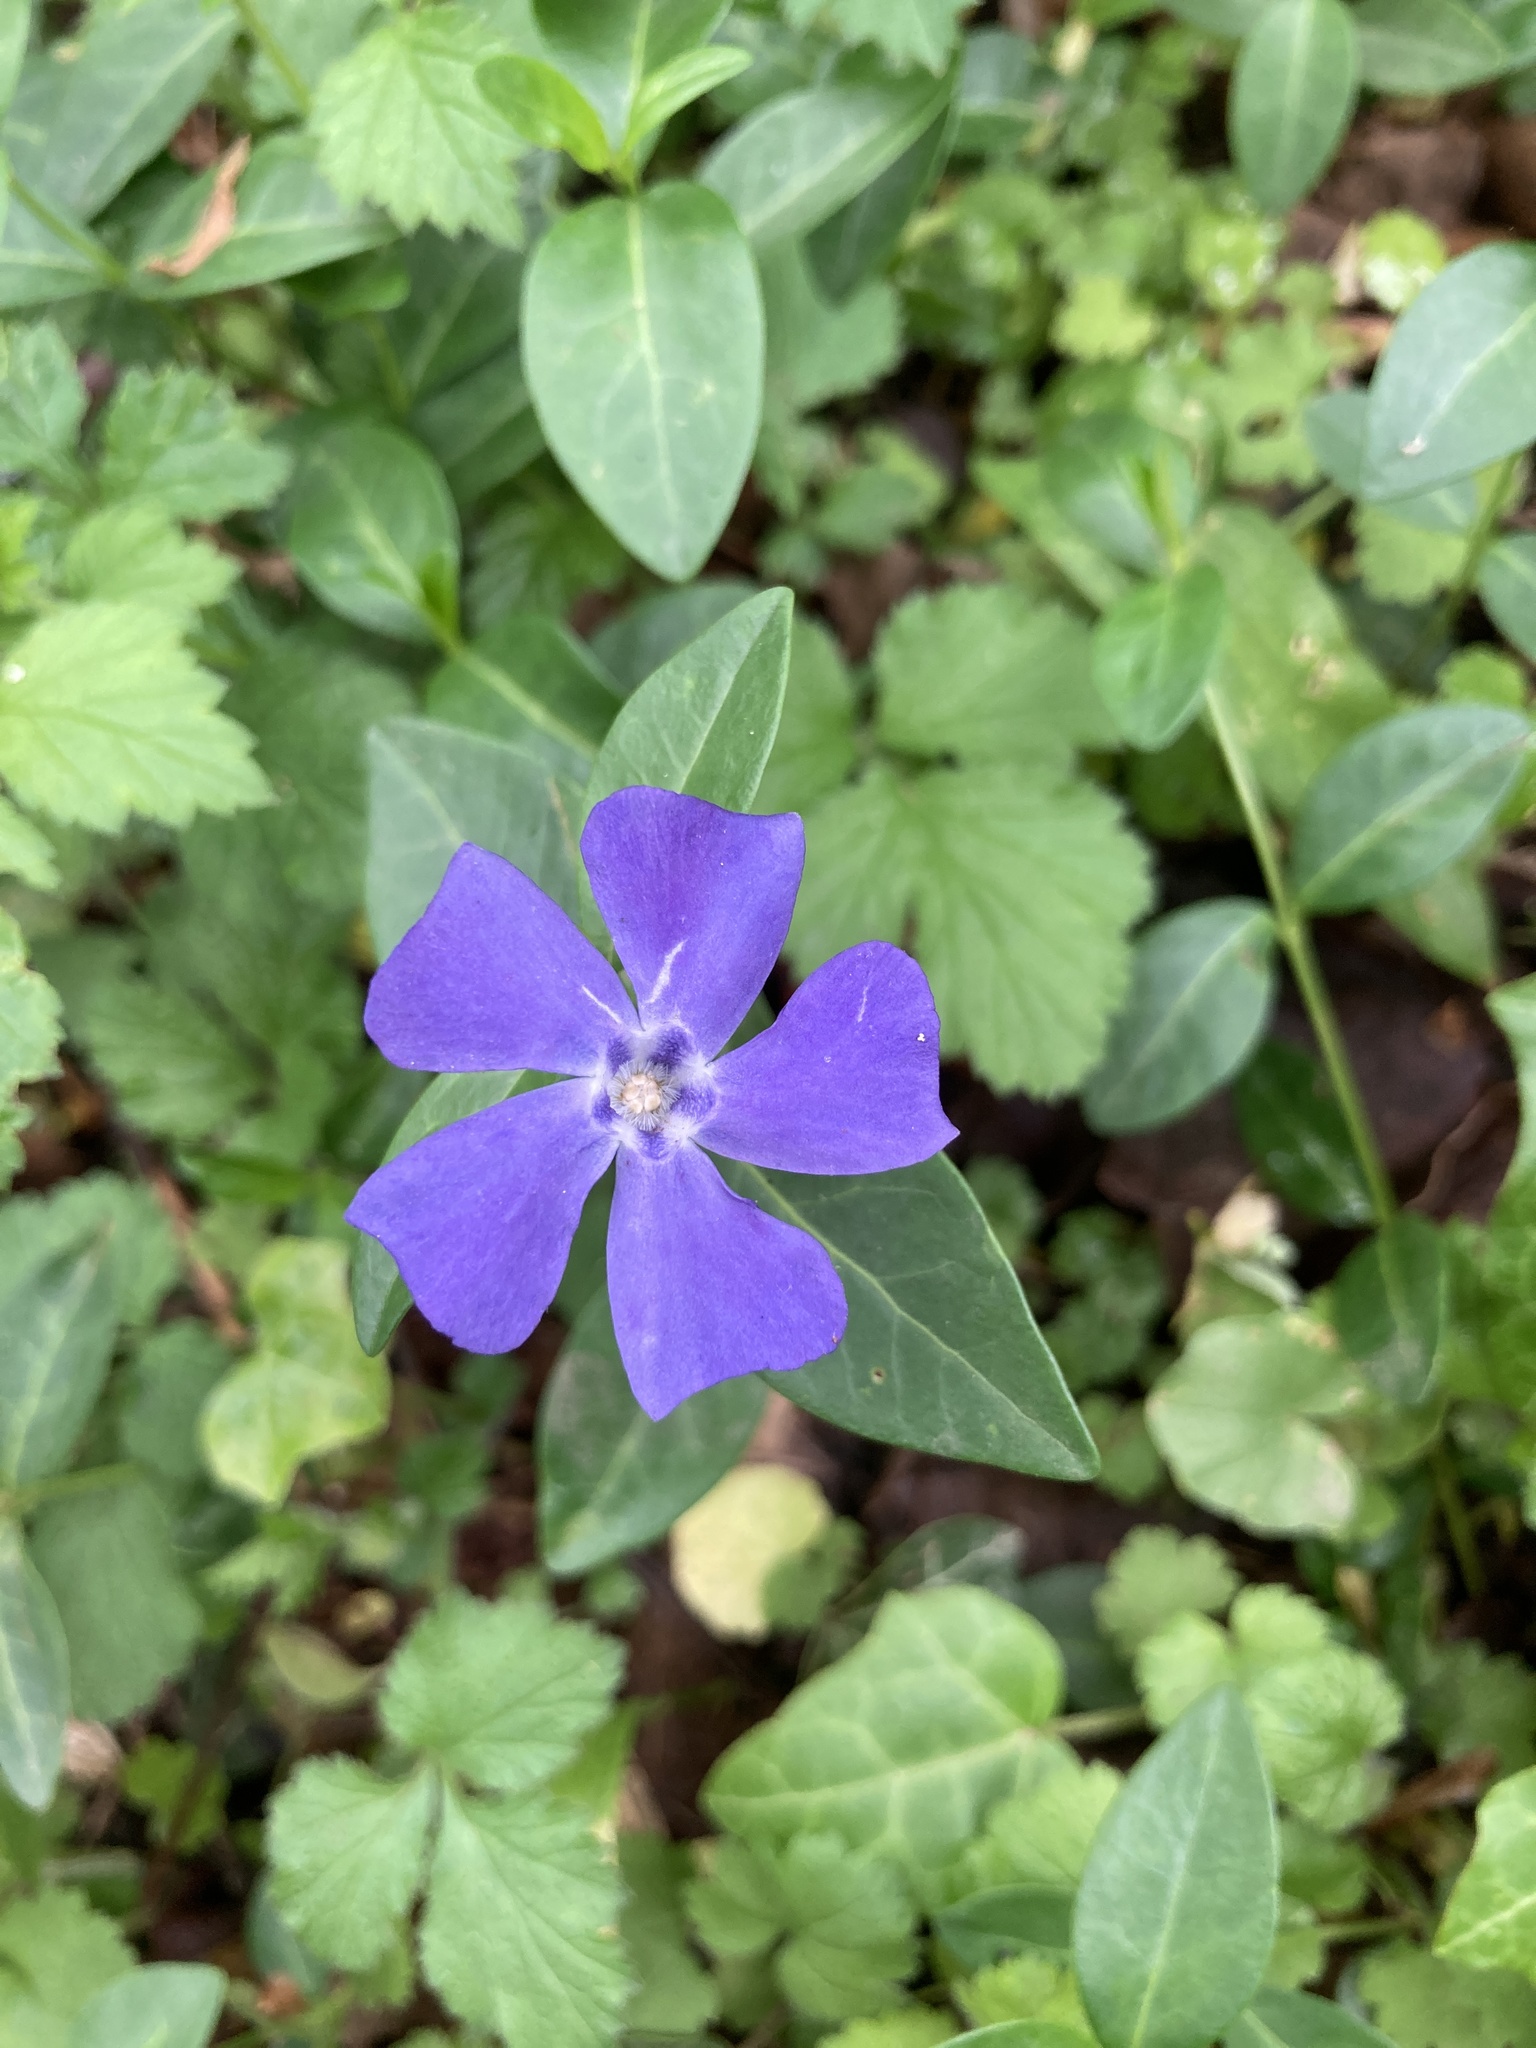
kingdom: Plantae
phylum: Tracheophyta
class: Magnoliopsida
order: Gentianales
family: Apocynaceae
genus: Vinca
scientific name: Vinca minor
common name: Lesser periwinkle
